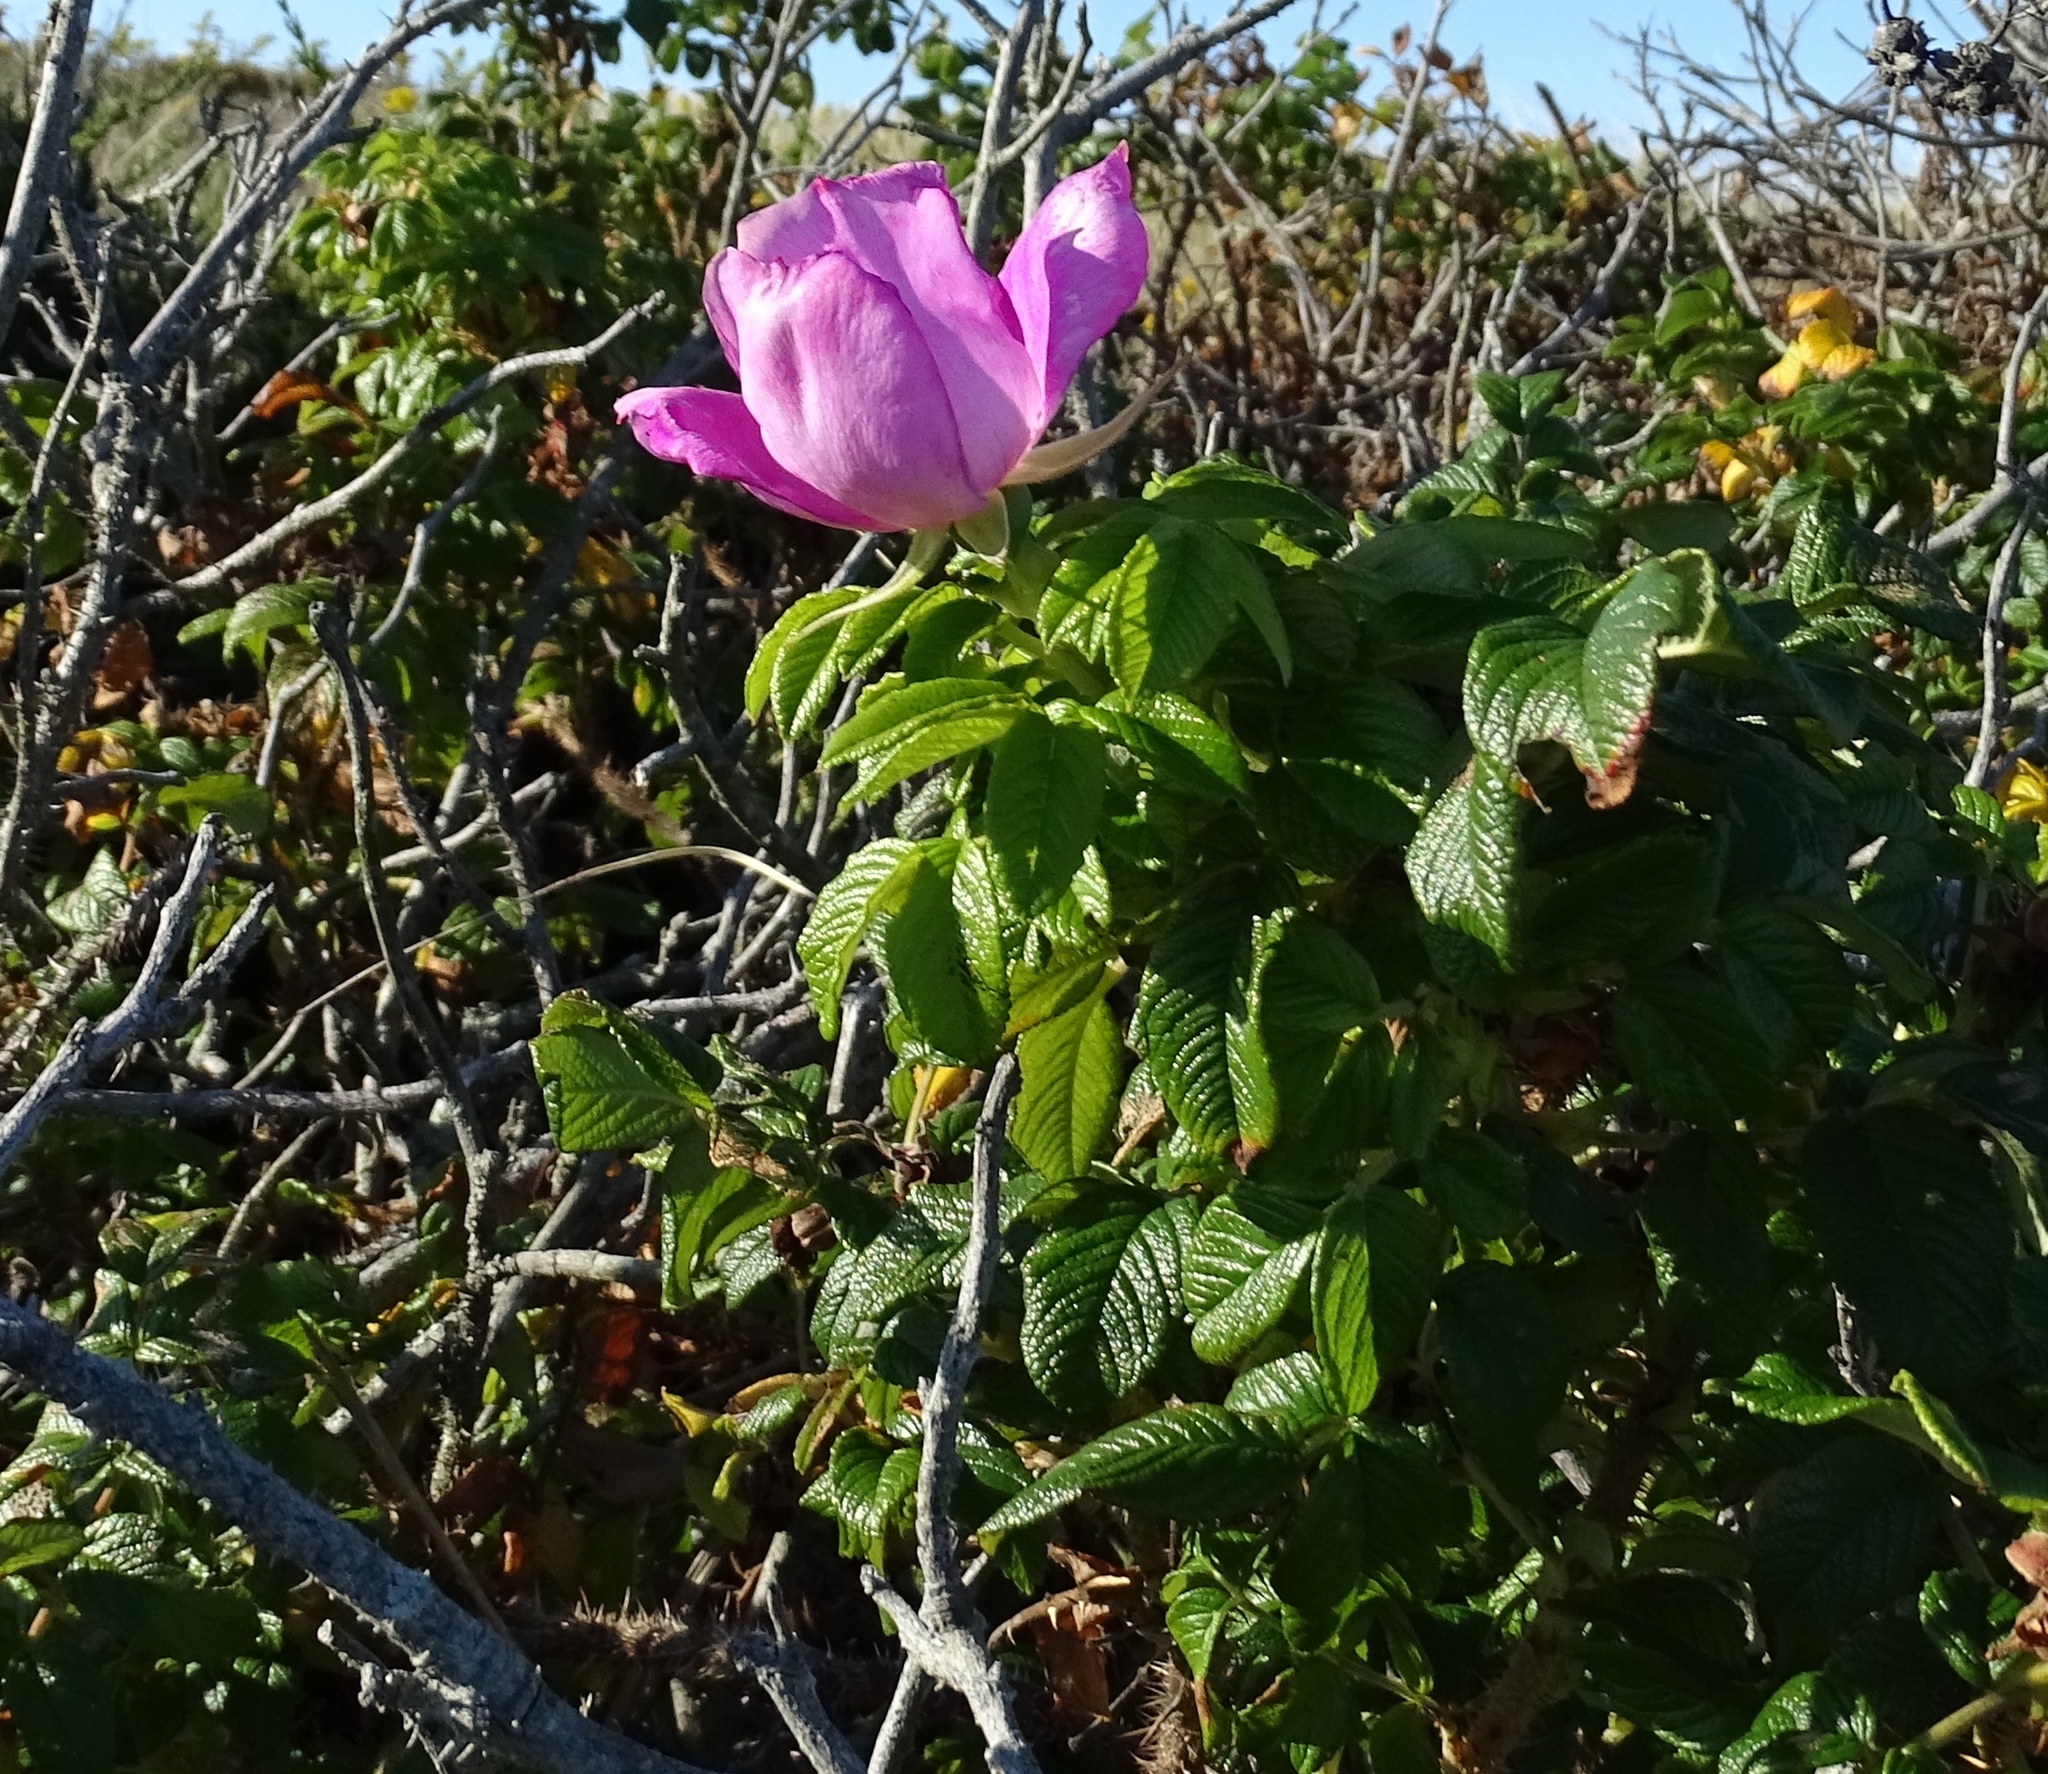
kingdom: Plantae
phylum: Tracheophyta
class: Magnoliopsida
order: Rosales
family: Rosaceae
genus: Rosa
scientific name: Rosa rugosa
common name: Japanese rose
